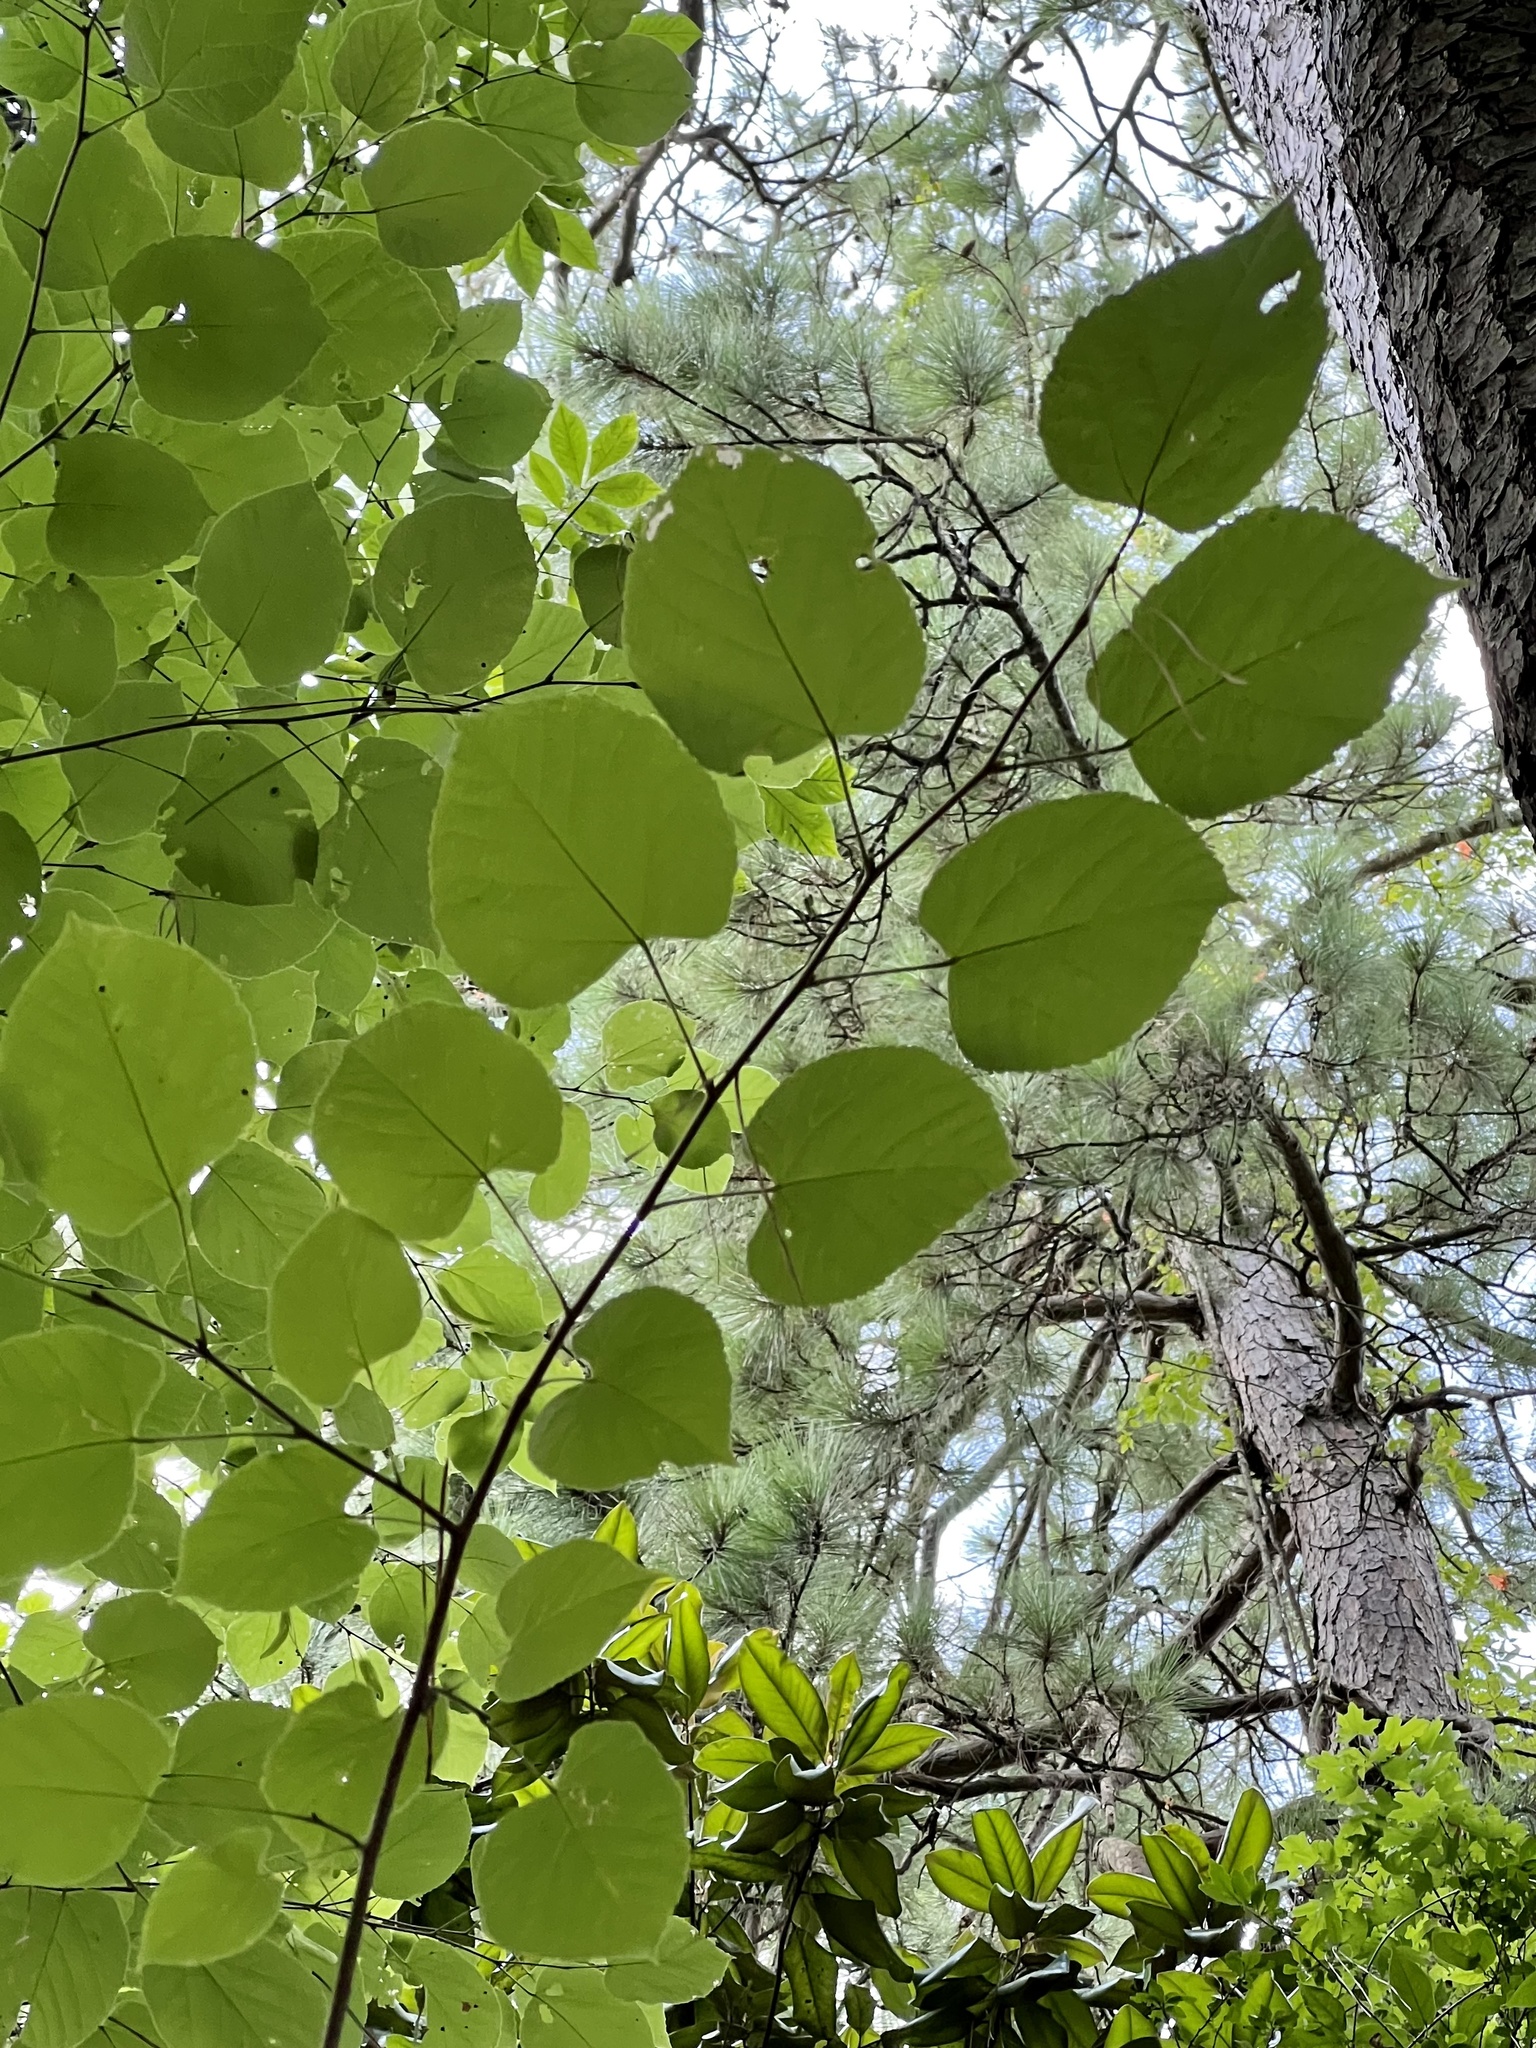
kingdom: Plantae
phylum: Tracheophyta
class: Magnoliopsida
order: Malvales
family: Malvaceae
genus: Tilia
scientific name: Tilia americana
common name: Basswood
